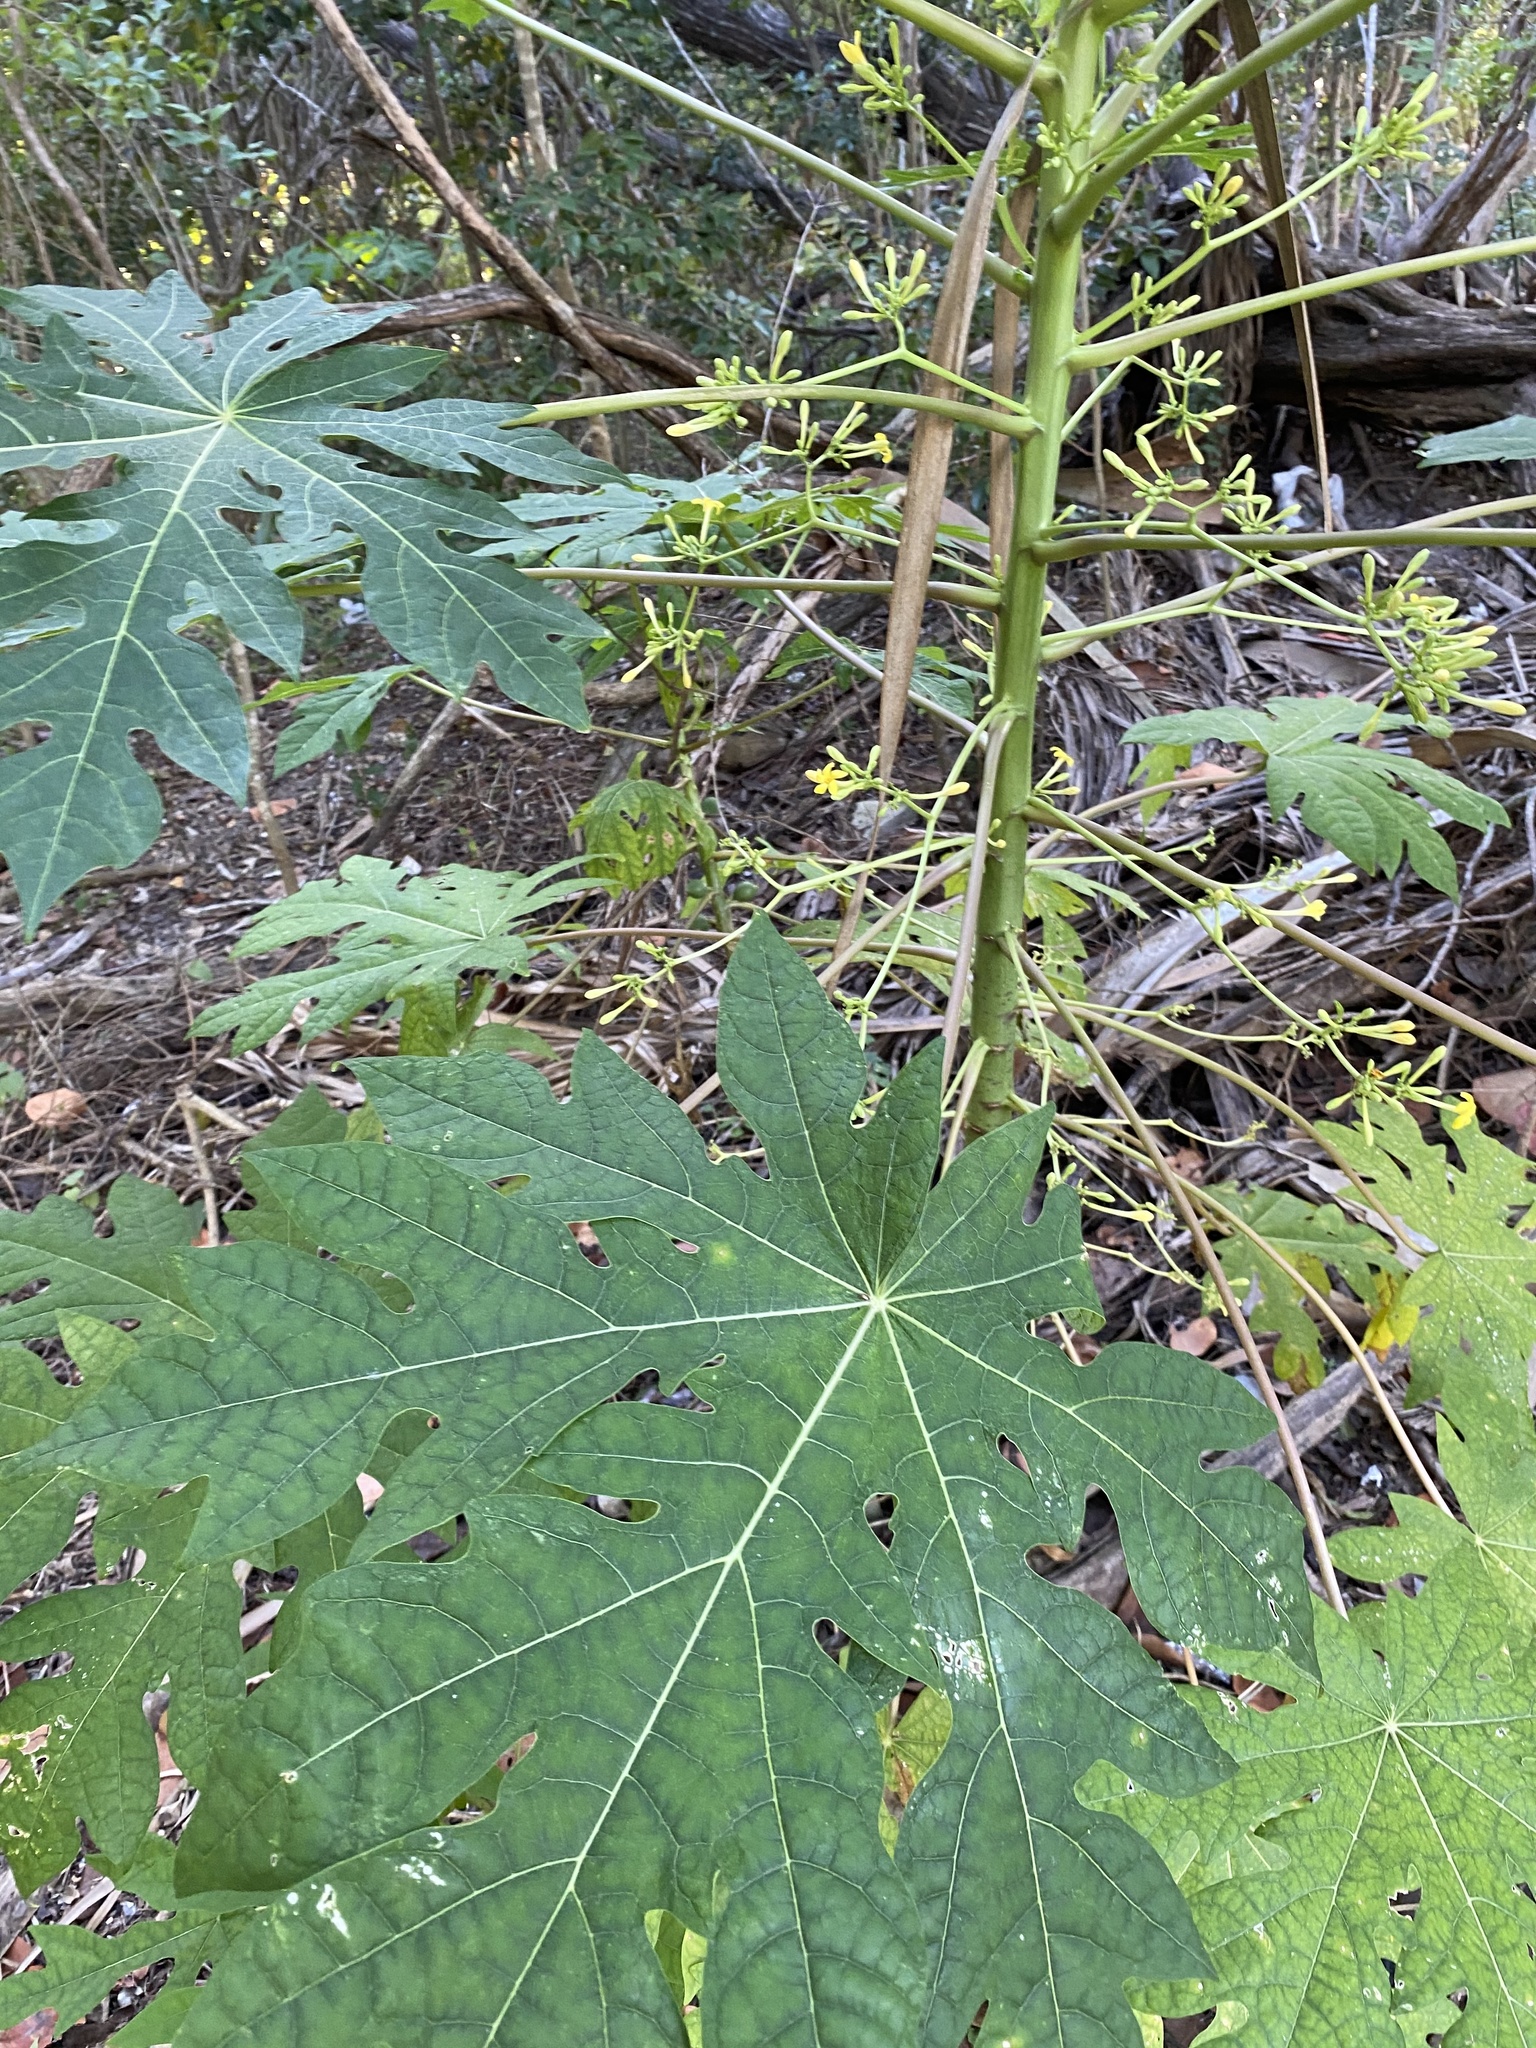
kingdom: Plantae
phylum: Tracheophyta
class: Magnoliopsida
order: Brassicales
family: Caricaceae
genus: Carica
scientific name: Carica papaya
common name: Papaya
